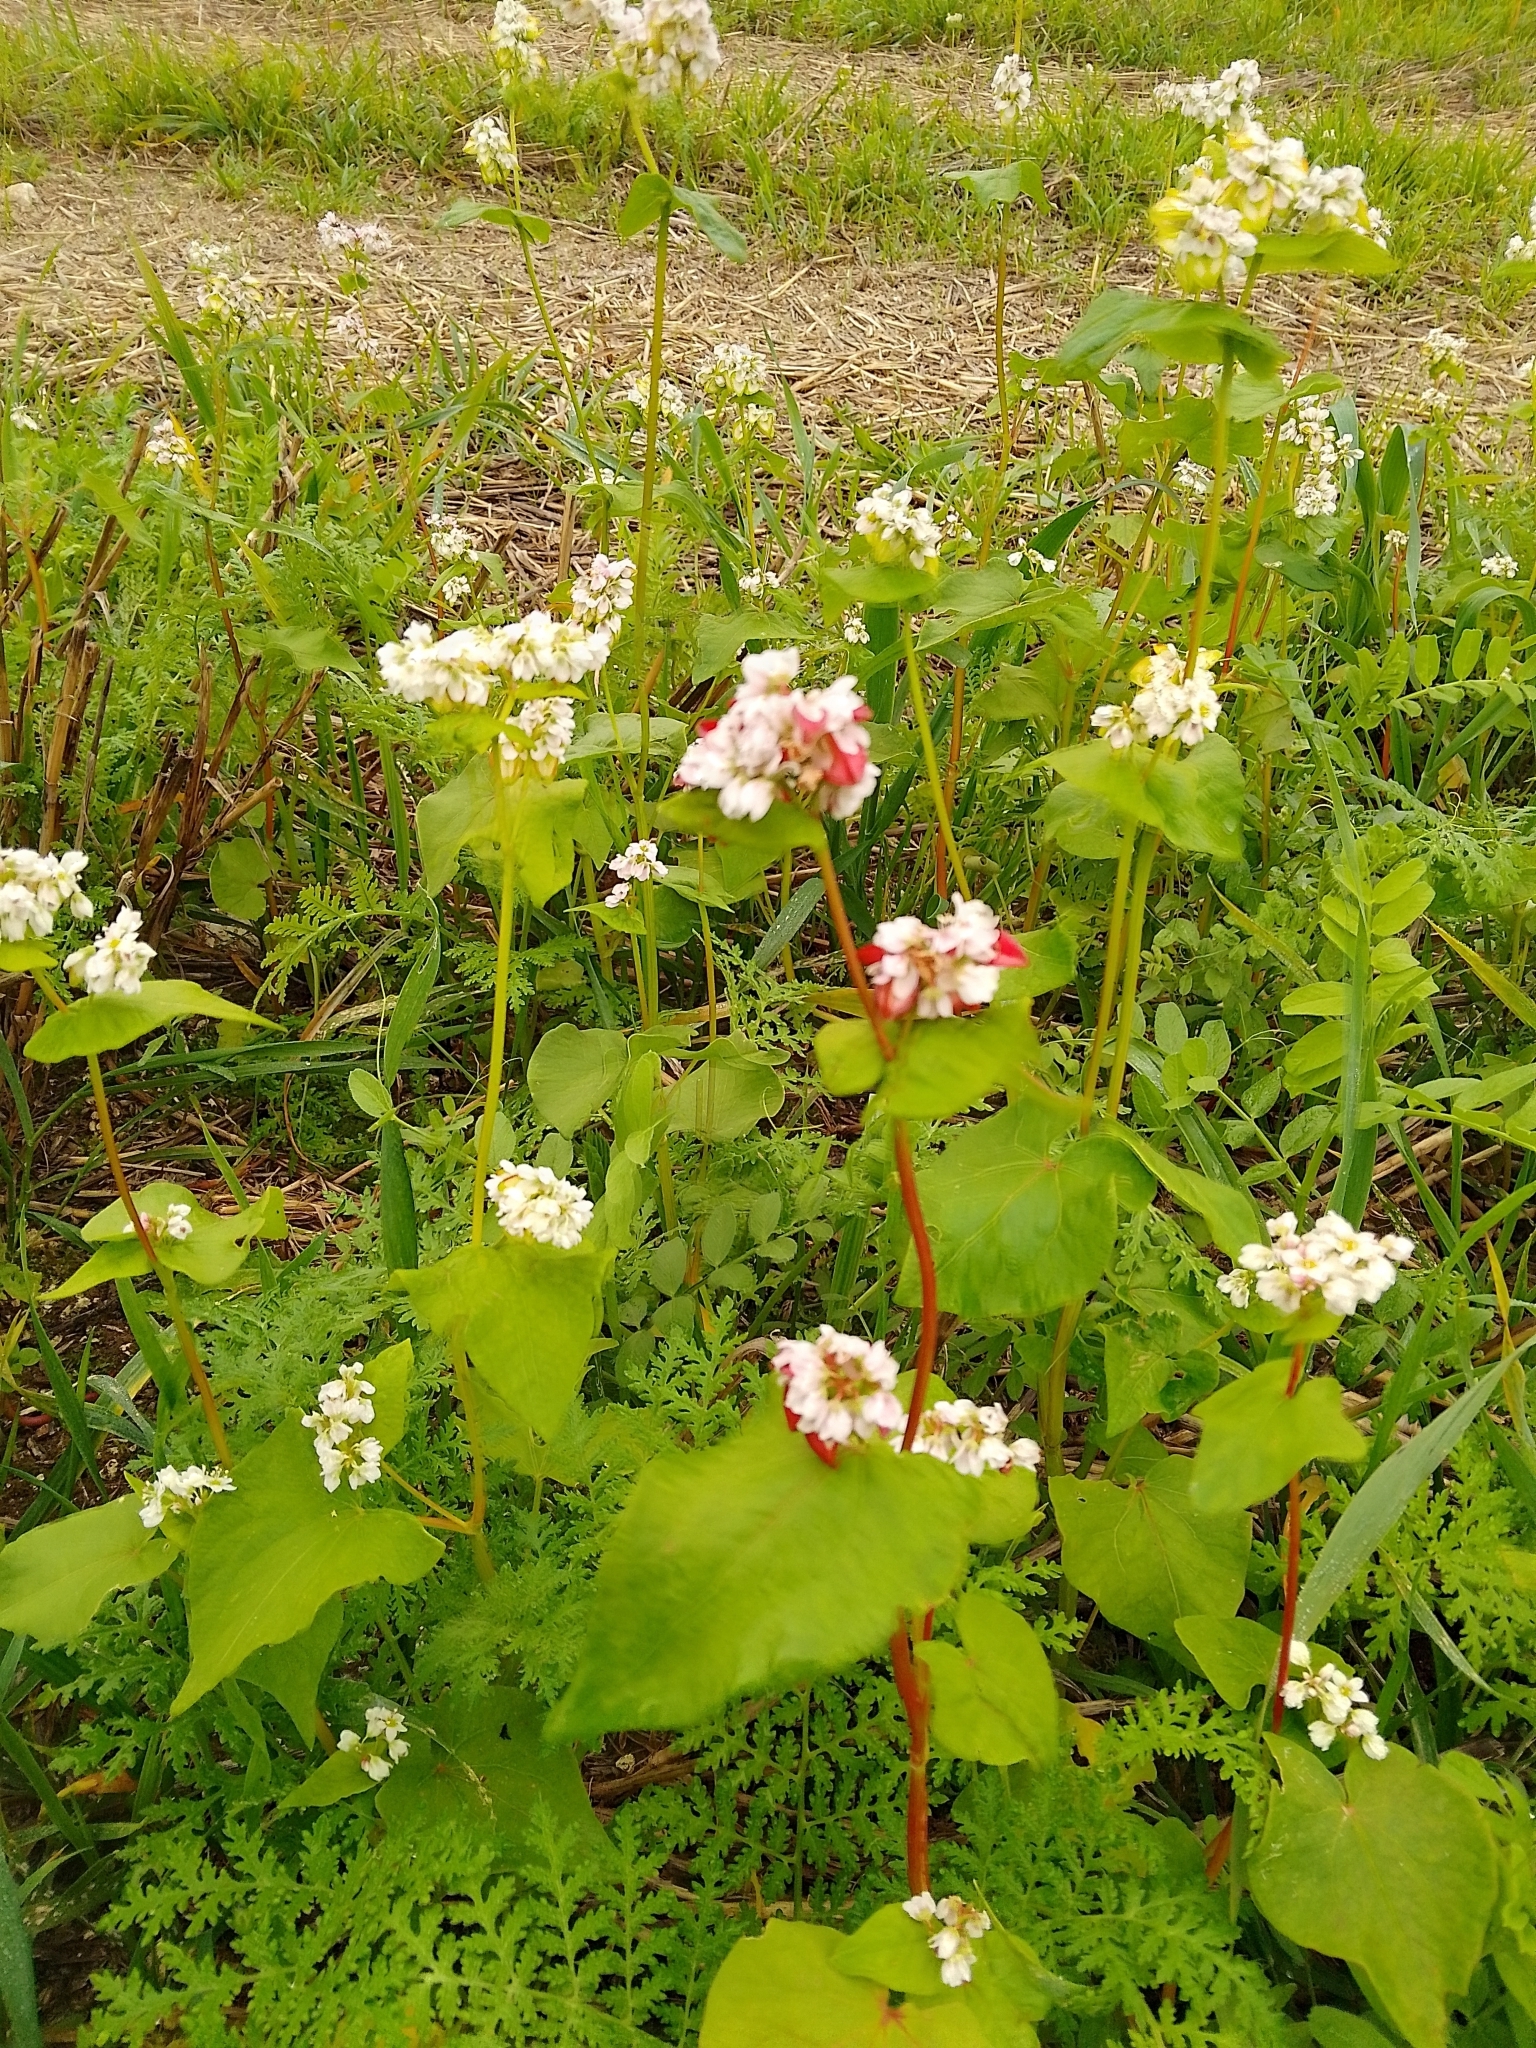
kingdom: Plantae
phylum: Tracheophyta
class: Magnoliopsida
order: Caryophyllales
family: Polygonaceae
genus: Fagopyrum
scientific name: Fagopyrum esculentum
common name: Buckwheat
